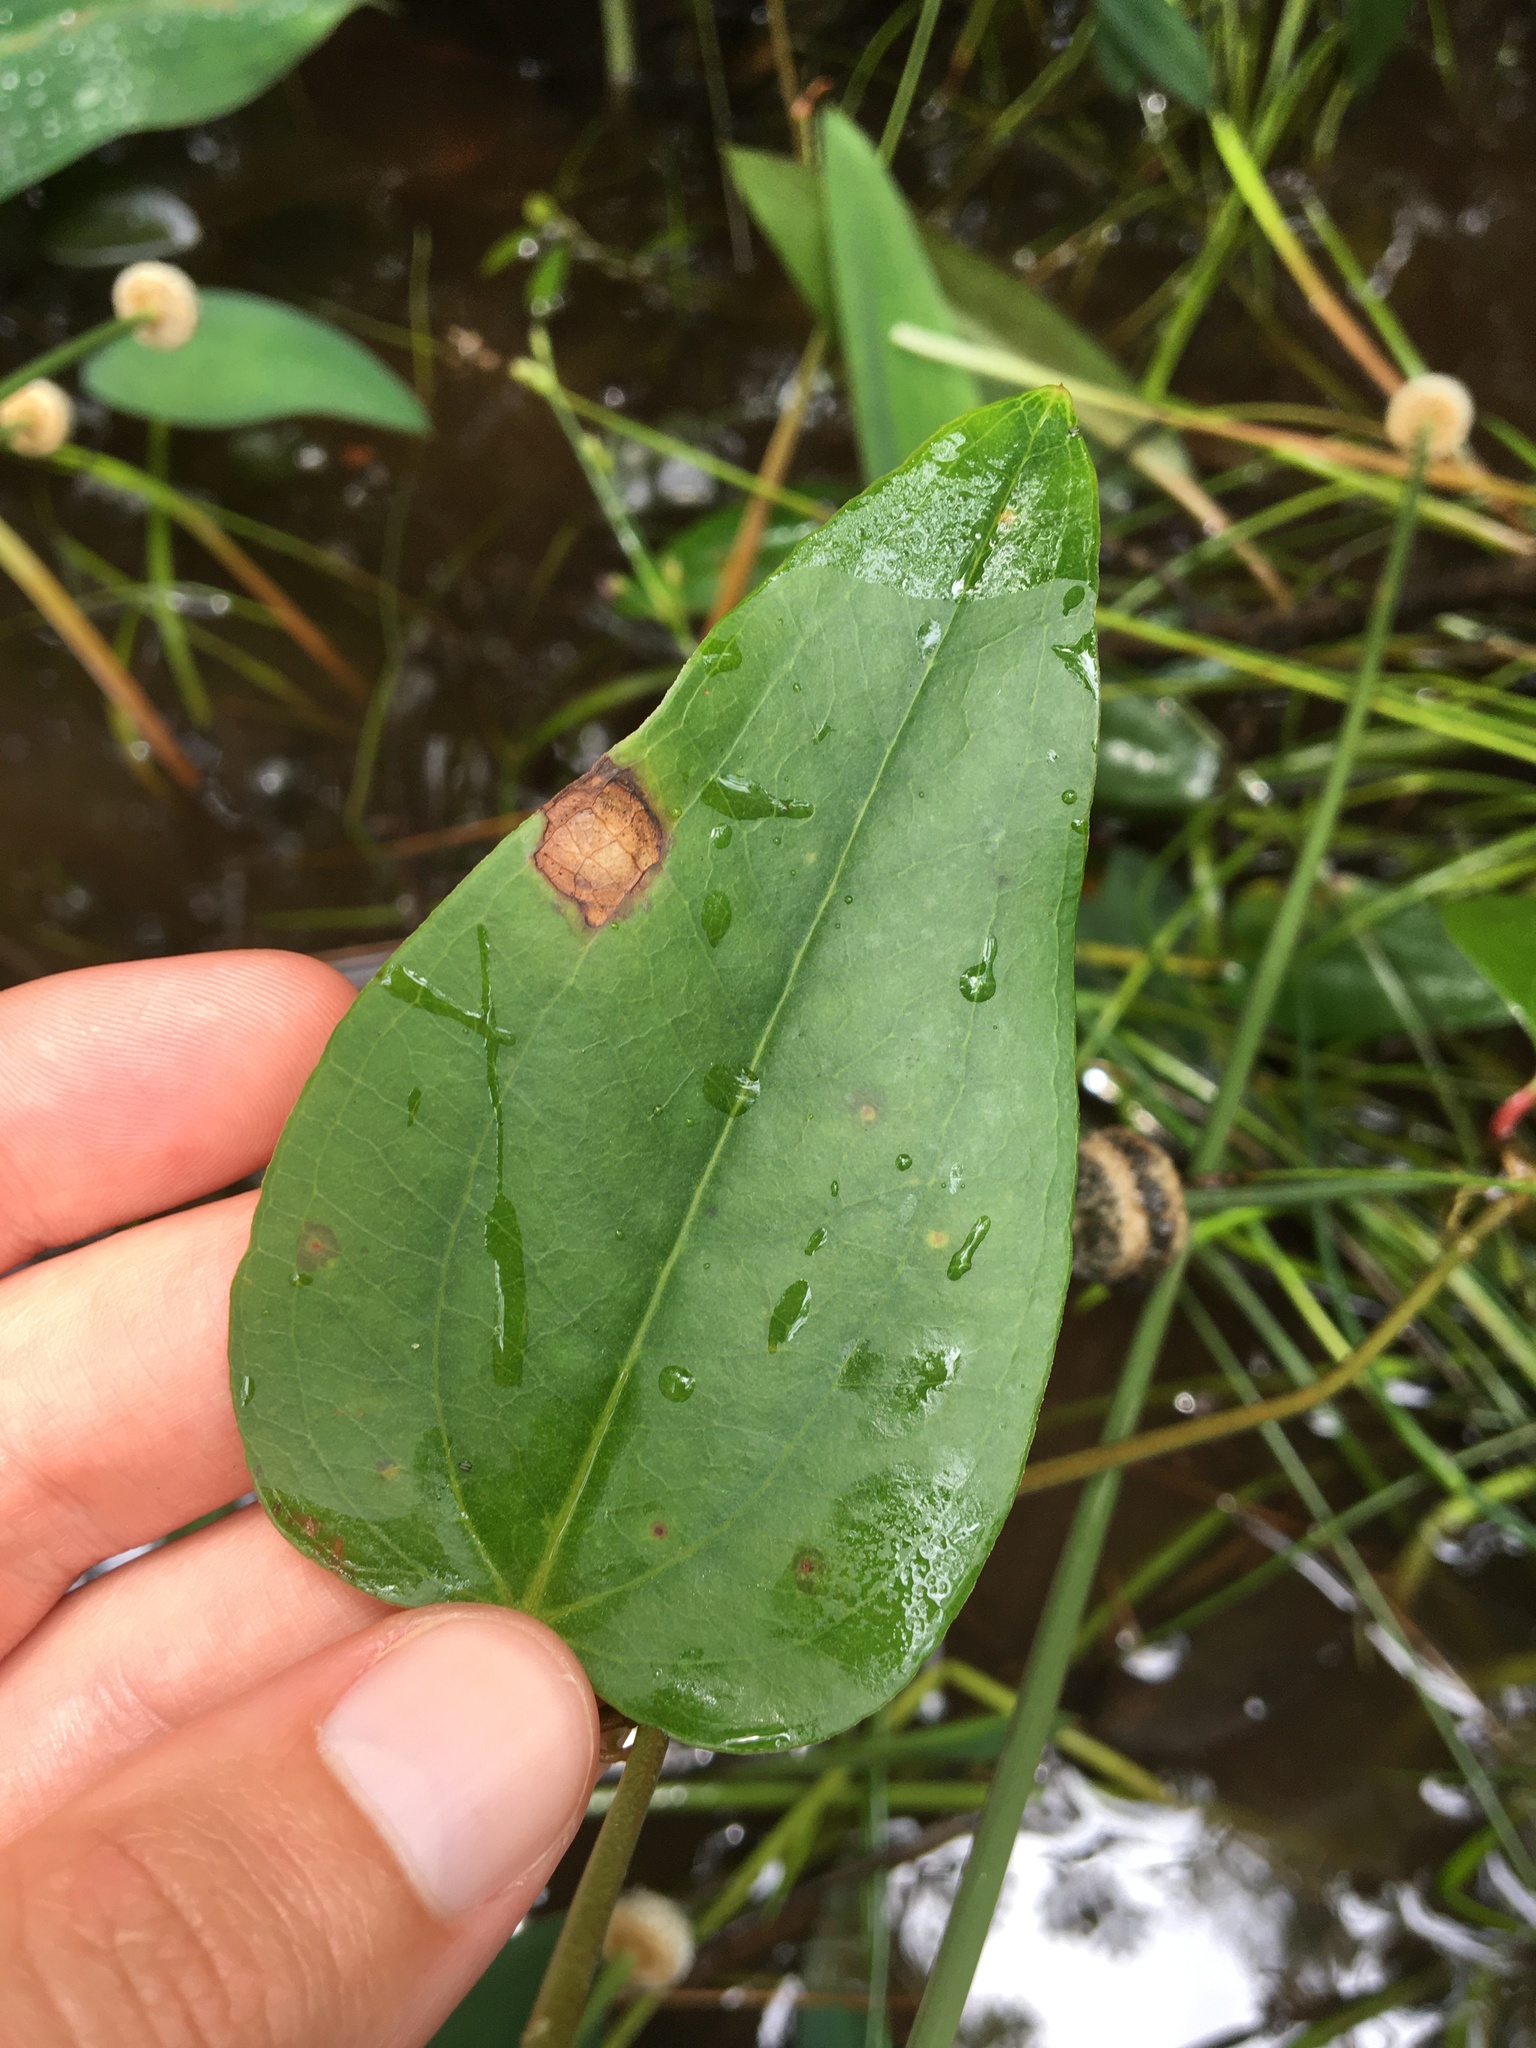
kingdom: Plantae
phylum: Tracheophyta
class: Liliopsida
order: Liliales
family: Smilacaceae
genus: Smilax
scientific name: Smilax walteri
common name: Coral greenbrier
